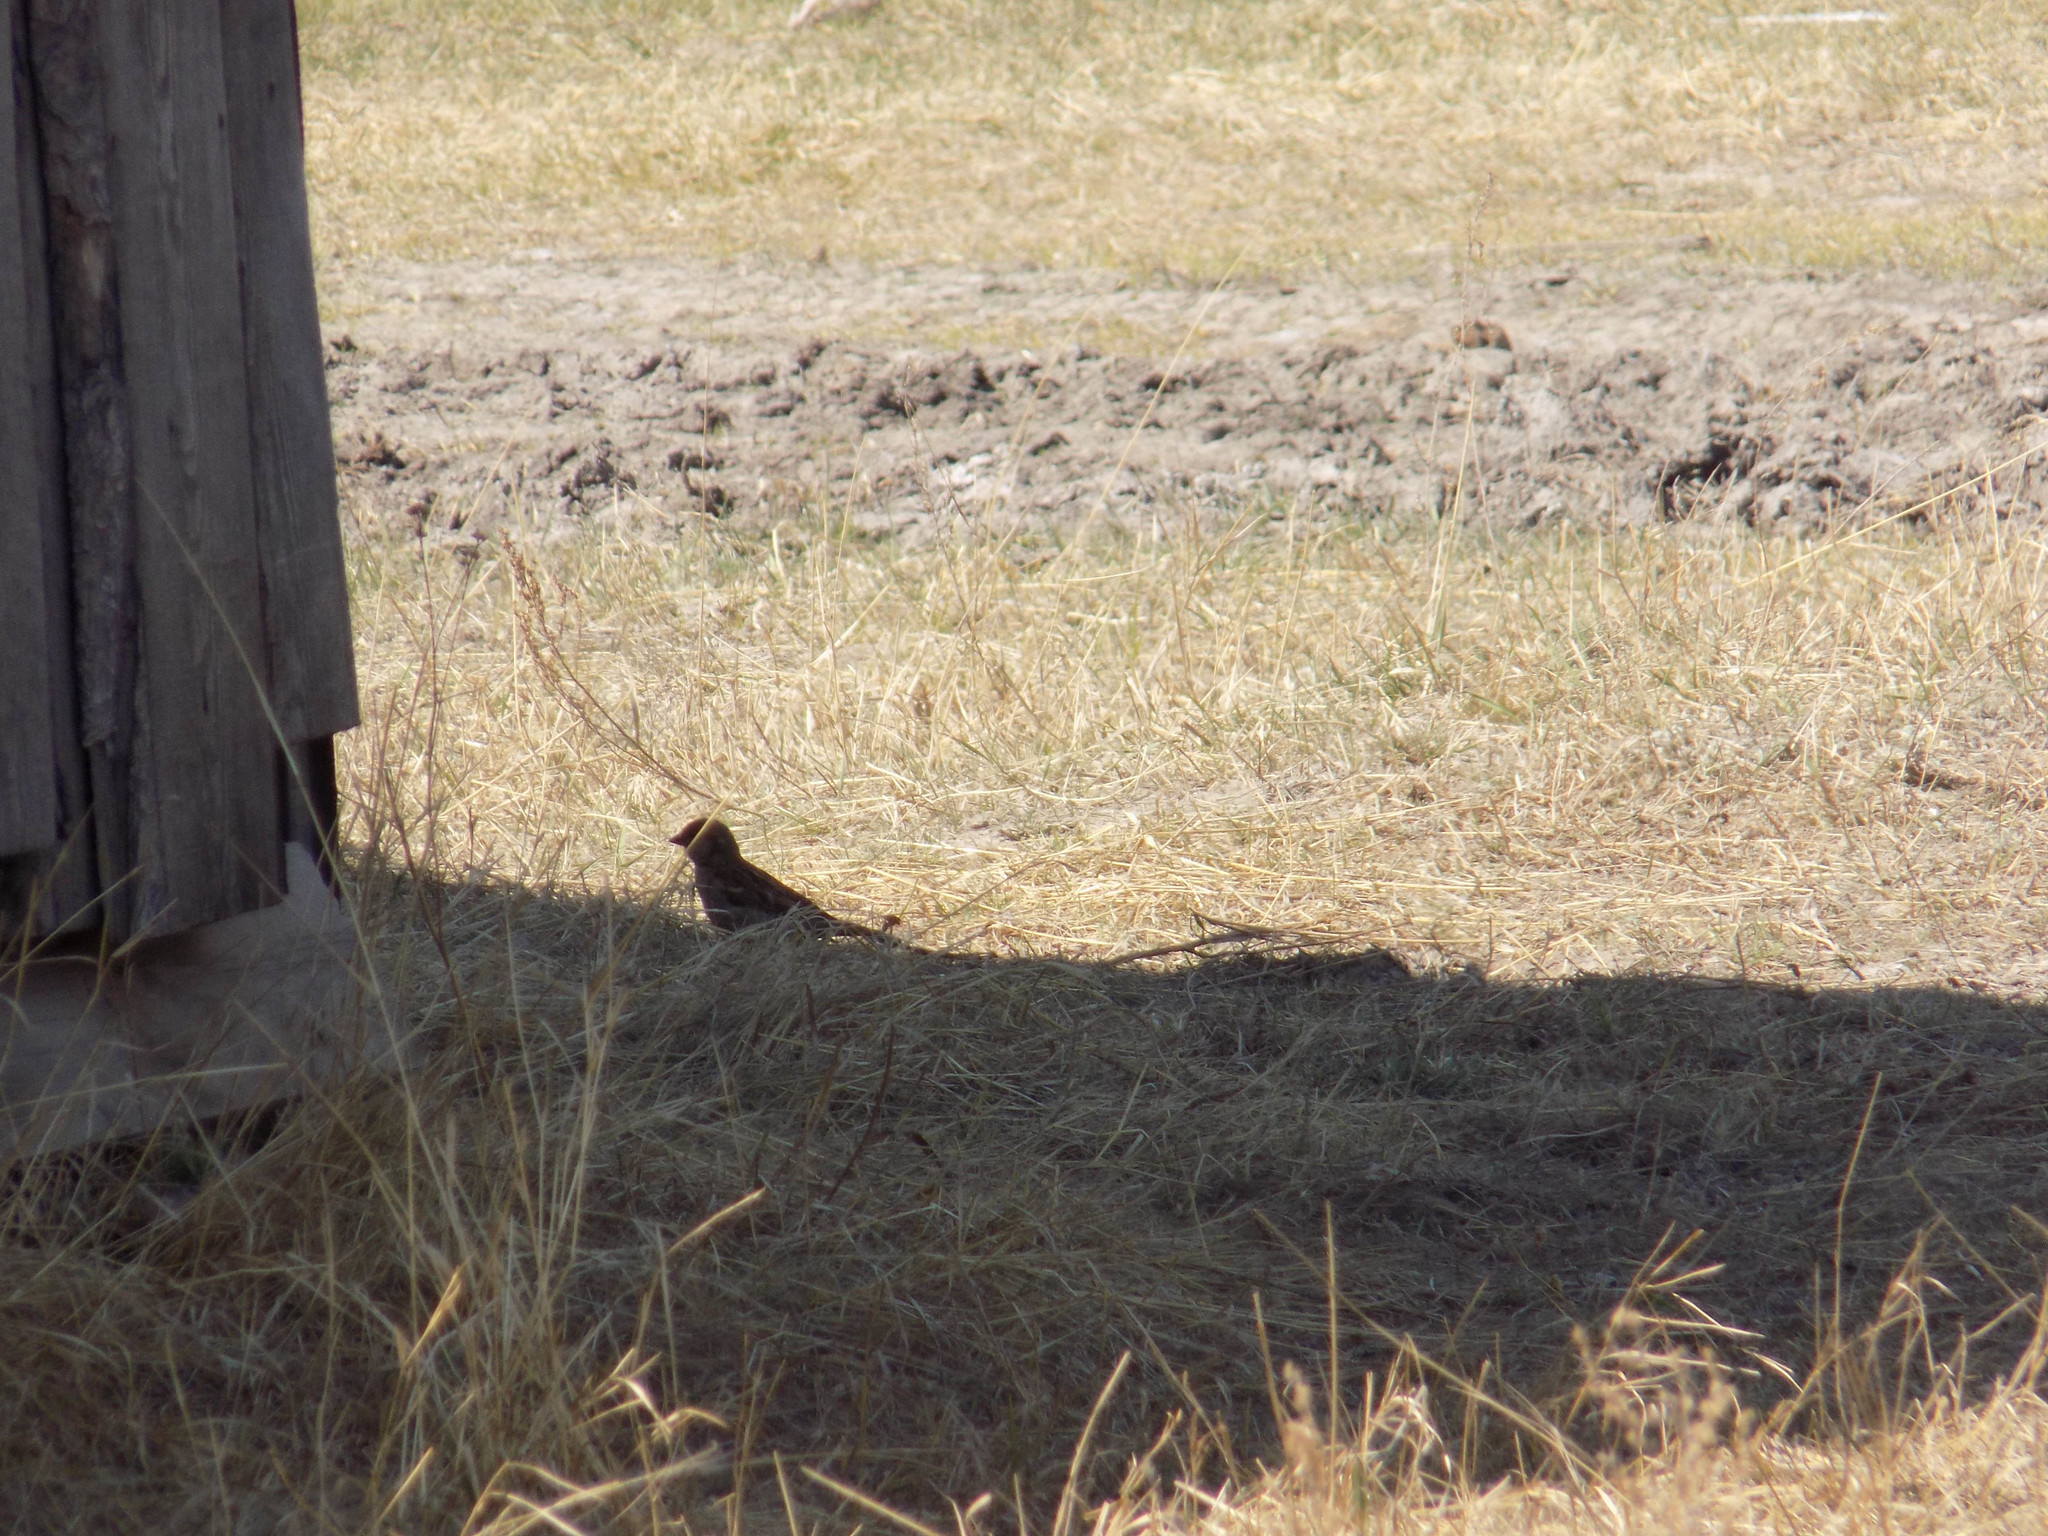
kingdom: Animalia
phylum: Chordata
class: Aves
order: Passeriformes
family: Passeridae
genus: Passer
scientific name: Passer domesticus
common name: House sparrow
